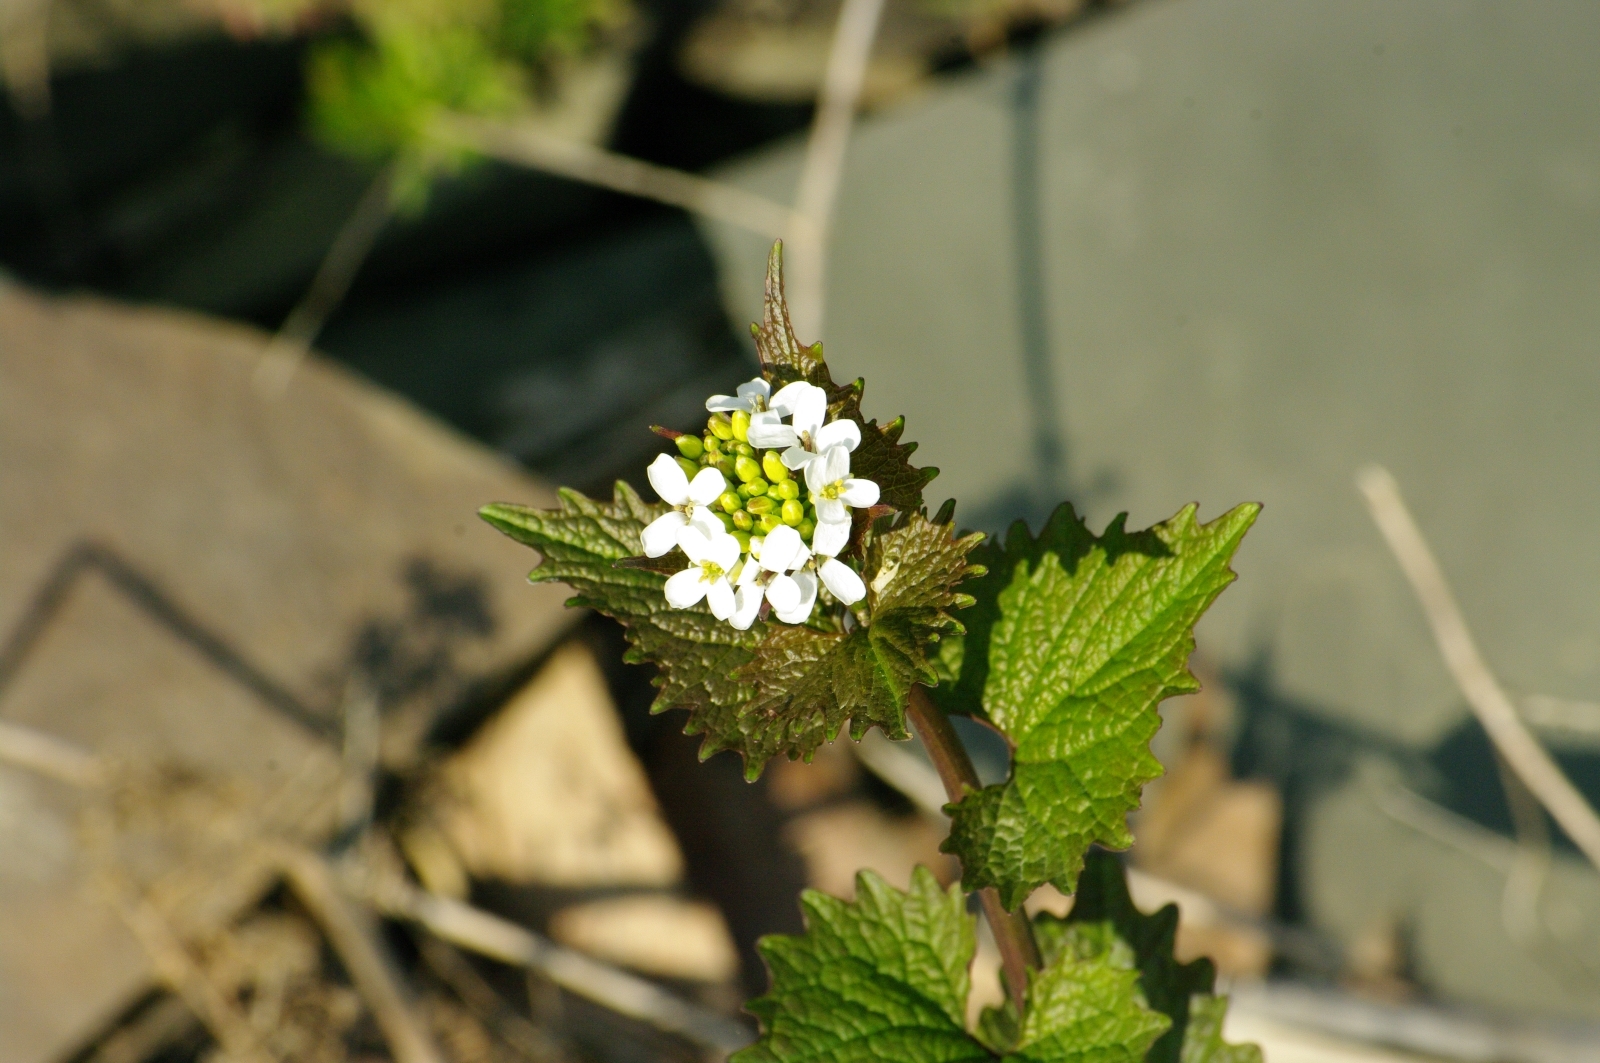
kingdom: Plantae
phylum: Tracheophyta
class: Magnoliopsida
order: Brassicales
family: Brassicaceae
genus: Alliaria
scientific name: Alliaria petiolata
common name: Garlic mustard
